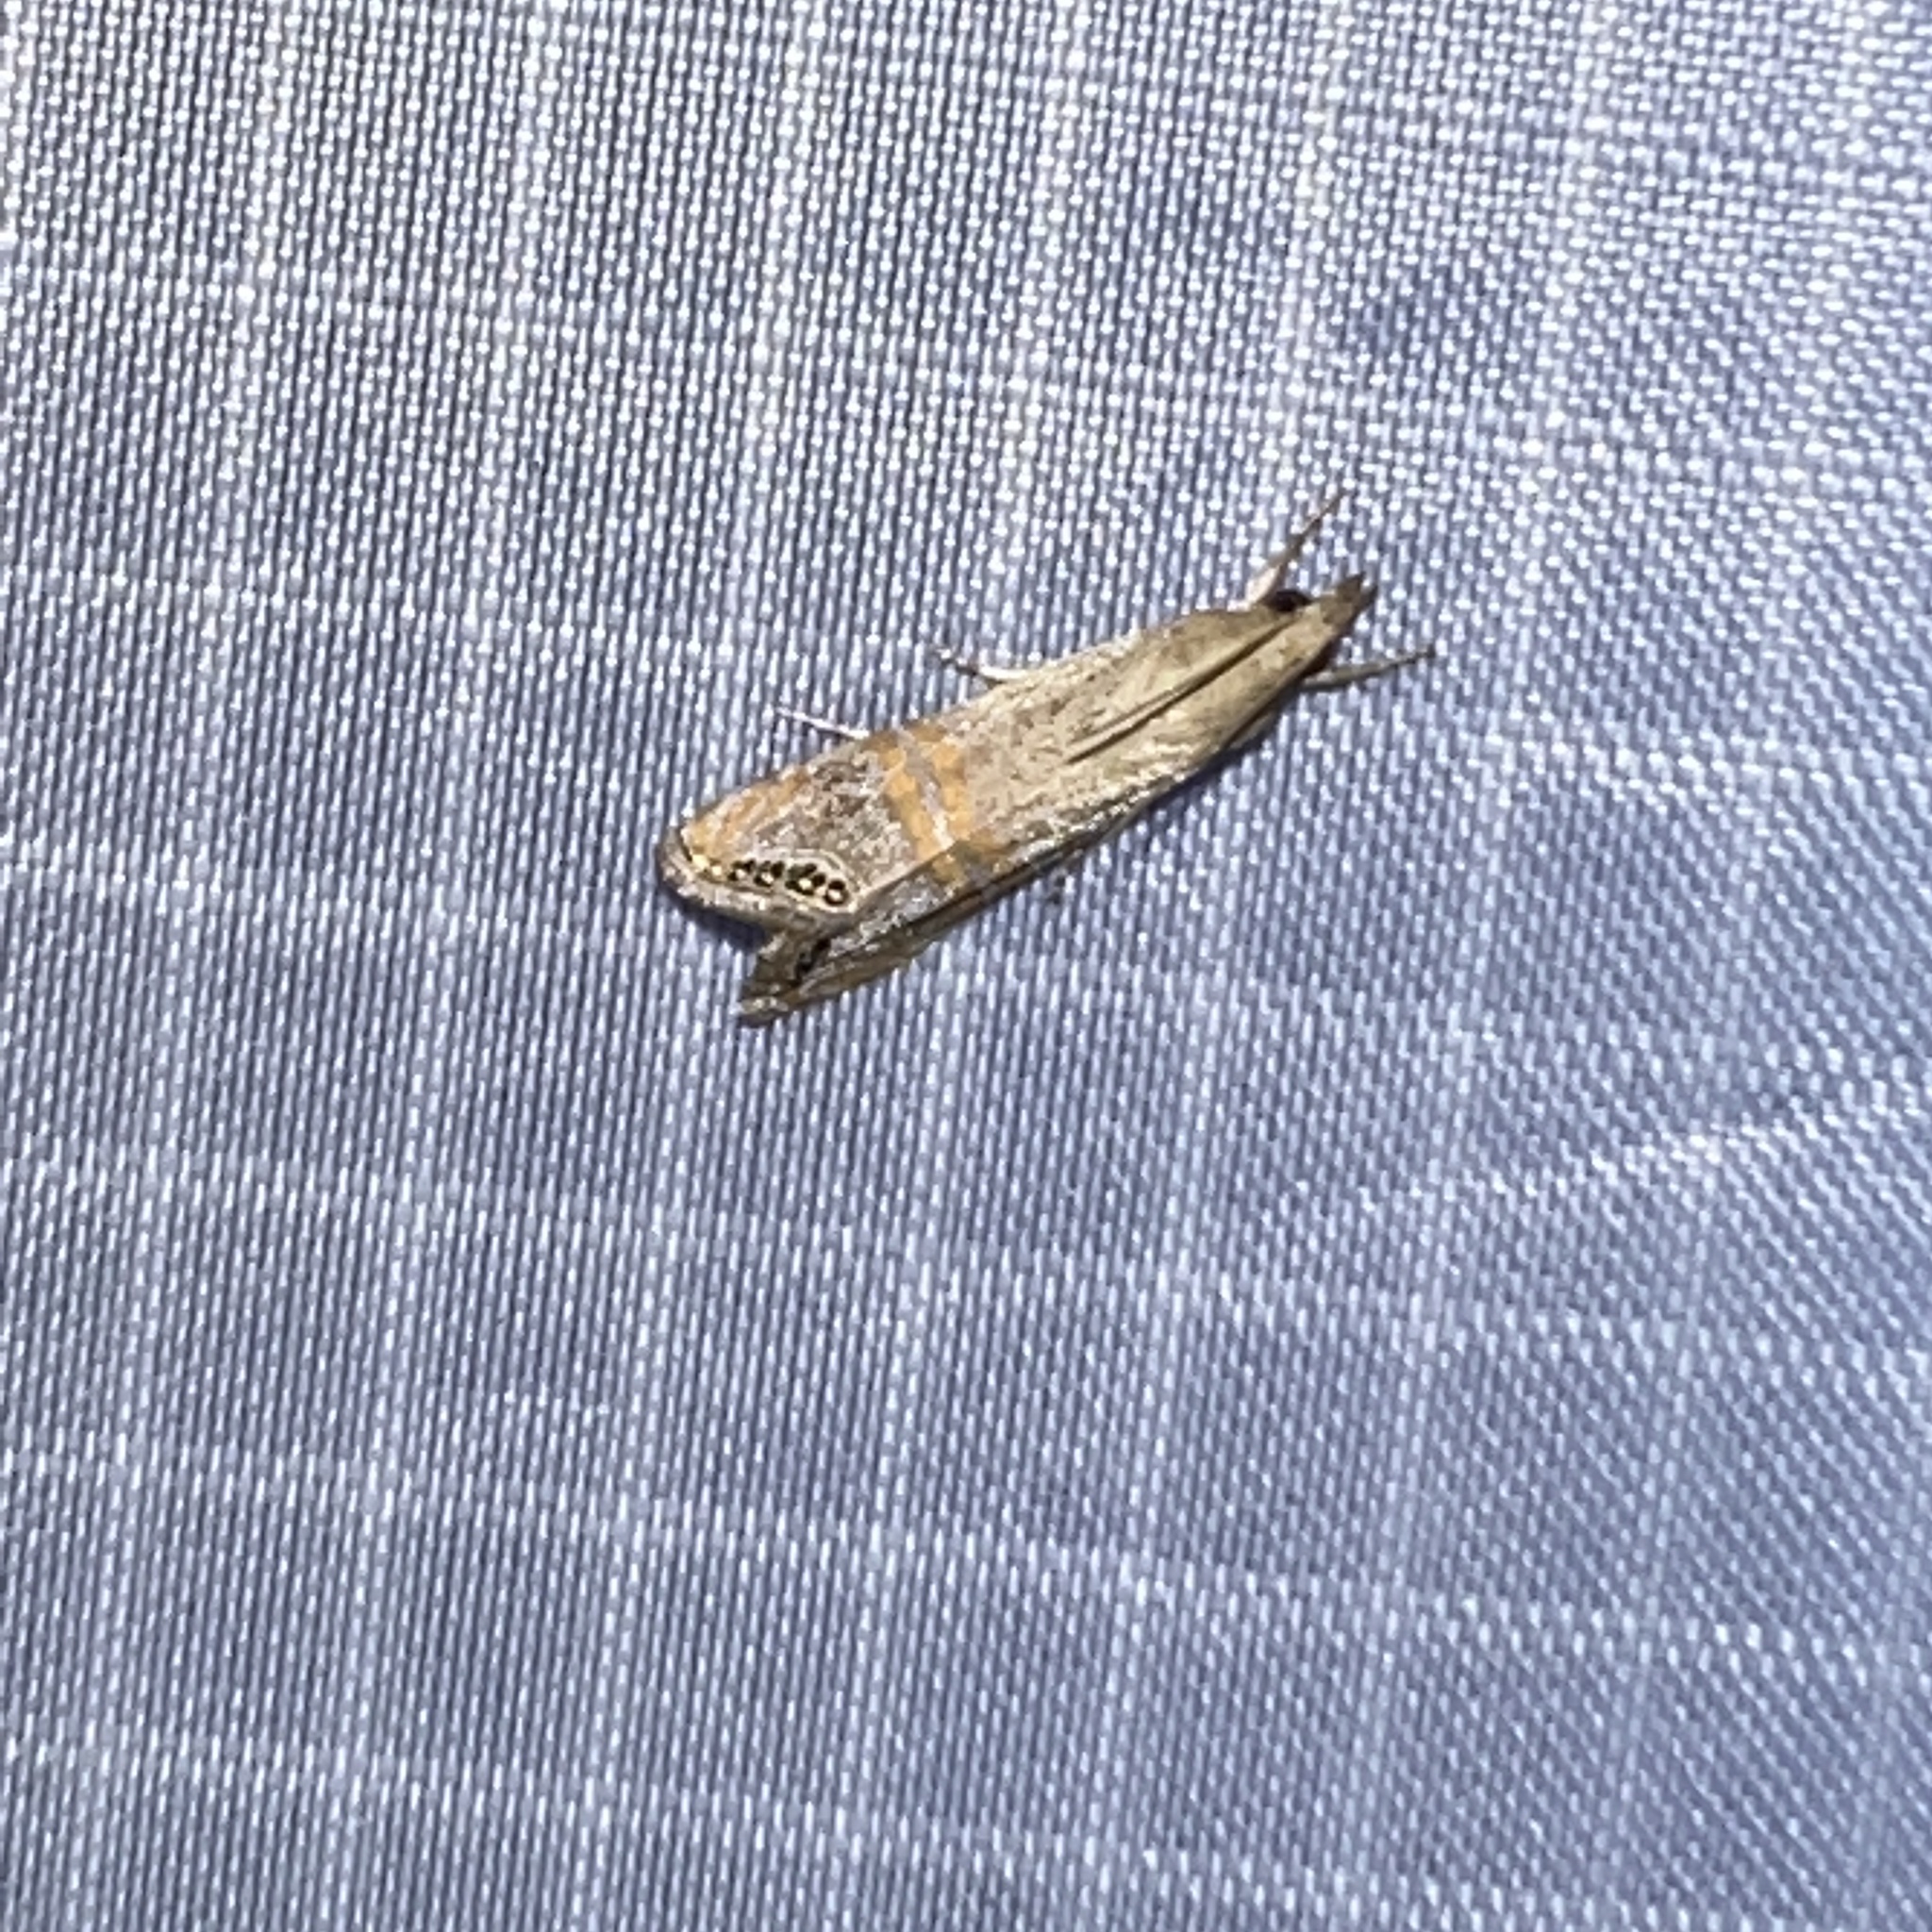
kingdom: Animalia
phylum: Arthropoda
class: Insecta
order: Lepidoptera
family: Crambidae
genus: Euchromius
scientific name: Euchromius ocellea
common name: Necklace veneer moth
